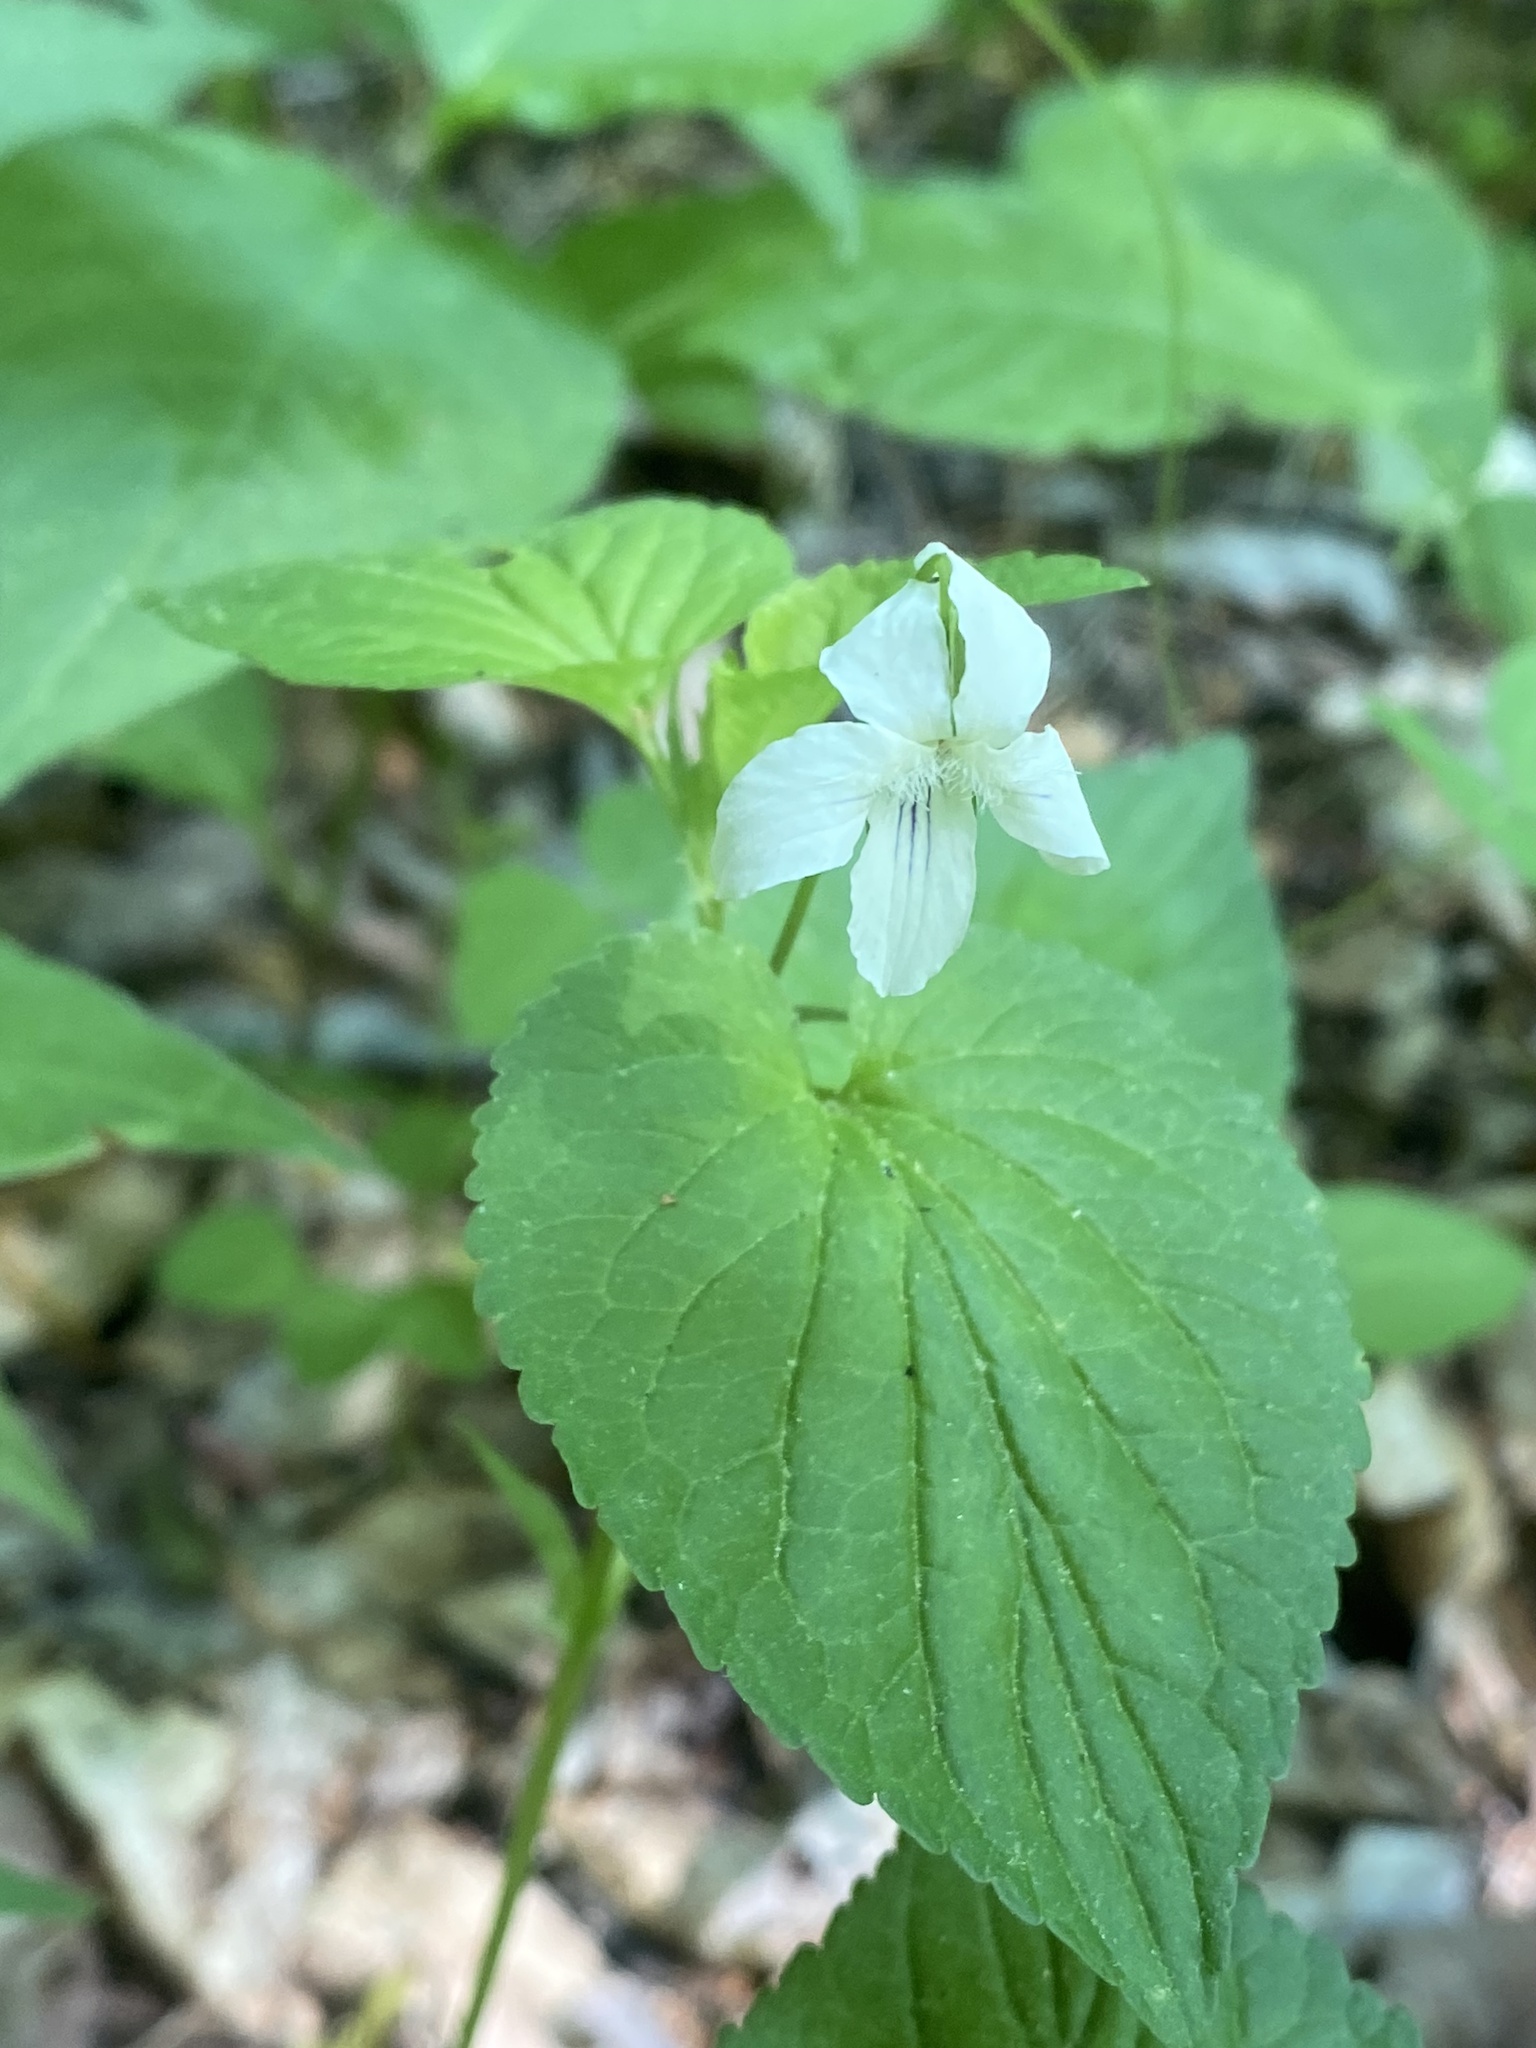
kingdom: Plantae
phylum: Tracheophyta
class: Magnoliopsida
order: Malpighiales
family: Violaceae
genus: Viola
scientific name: Viola striata
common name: Cream violet
